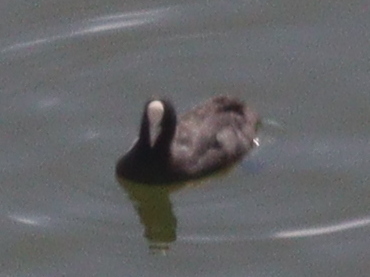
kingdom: Animalia
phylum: Chordata
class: Aves
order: Gruiformes
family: Rallidae
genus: Fulica
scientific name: Fulica atra
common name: Eurasian coot
